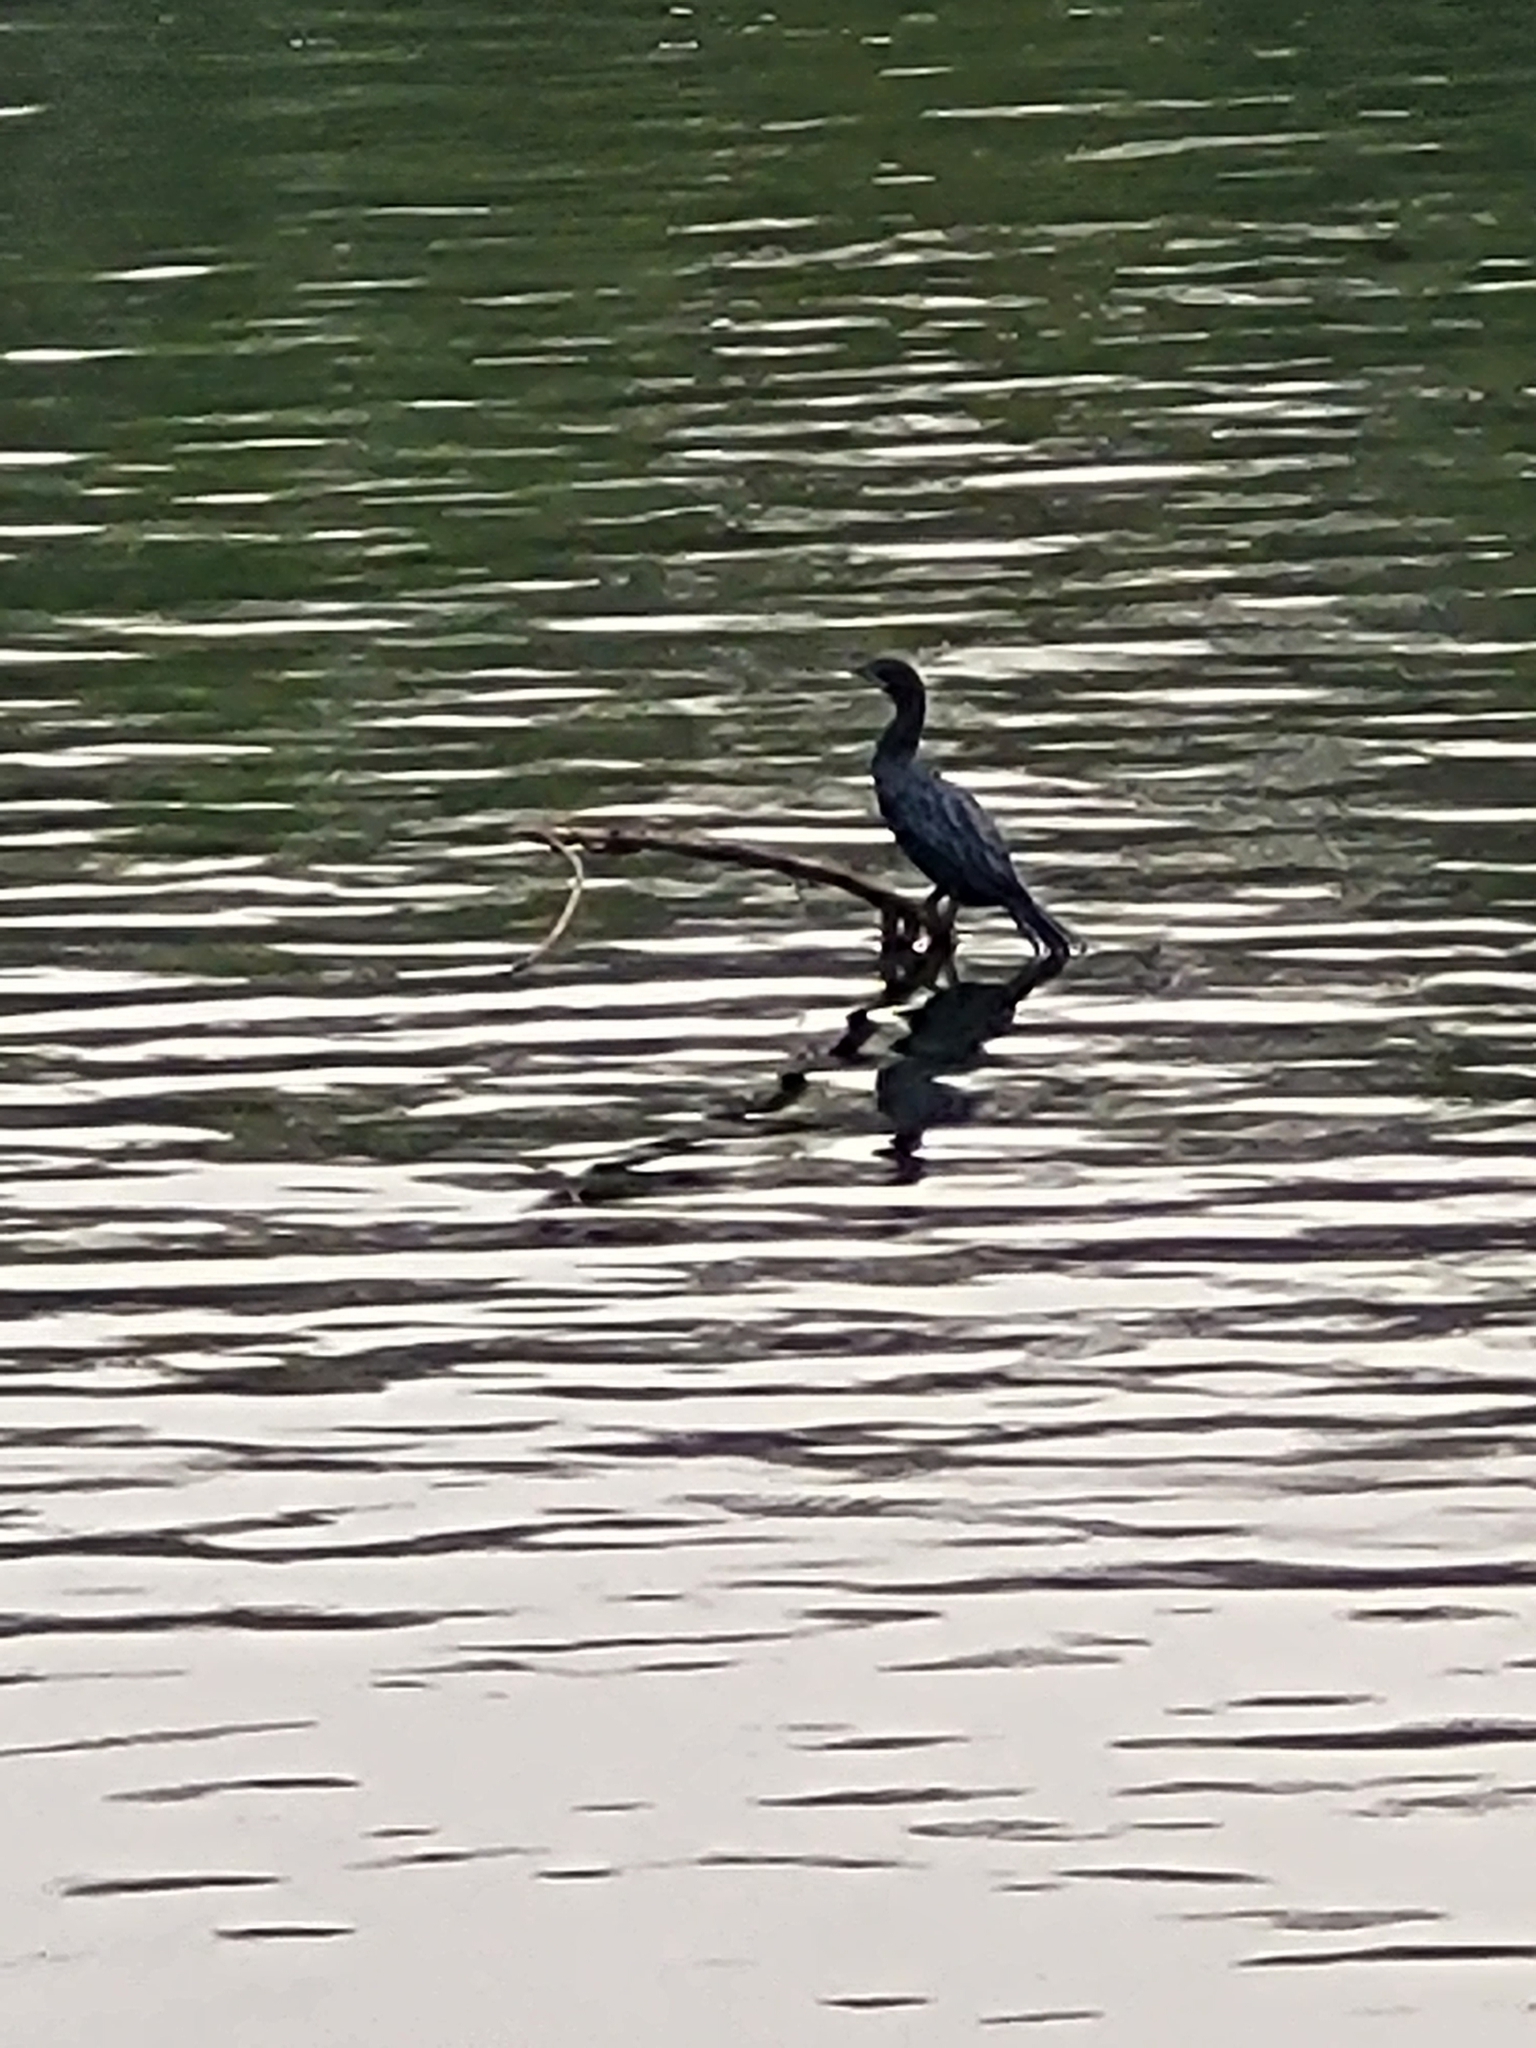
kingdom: Animalia
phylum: Chordata
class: Aves
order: Suliformes
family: Phalacrocoracidae
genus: Microcarbo
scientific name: Microcarbo niger
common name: Little cormorant
